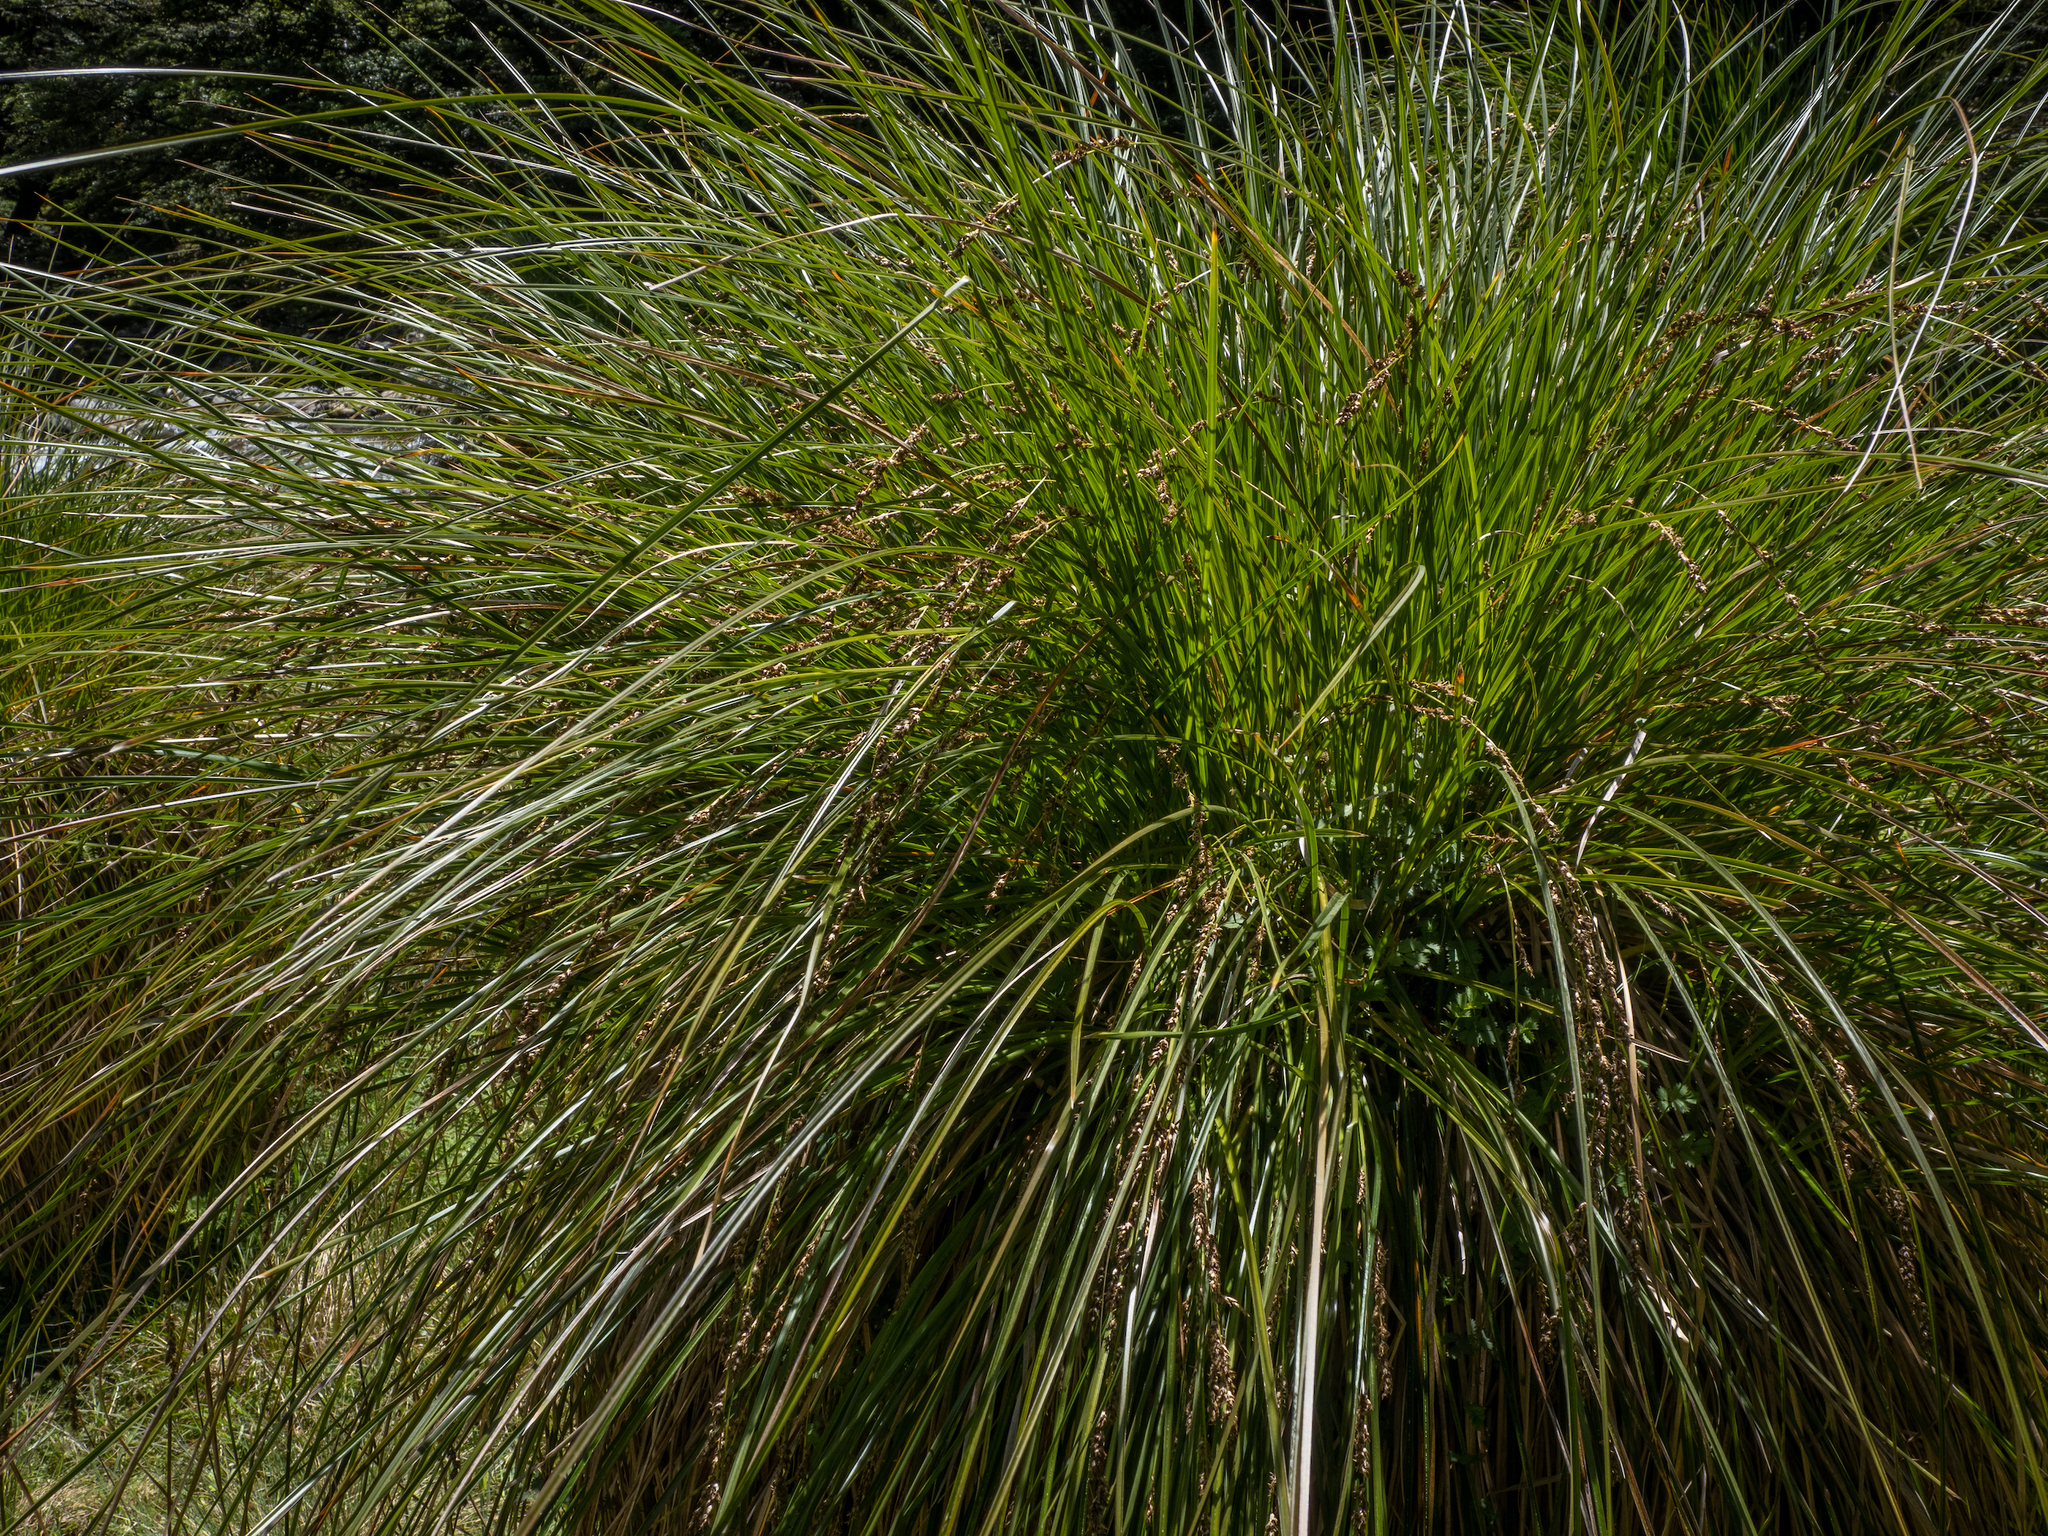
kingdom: Plantae
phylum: Tracheophyta
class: Liliopsida
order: Poales
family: Cyperaceae
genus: Carex
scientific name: Carex secta
